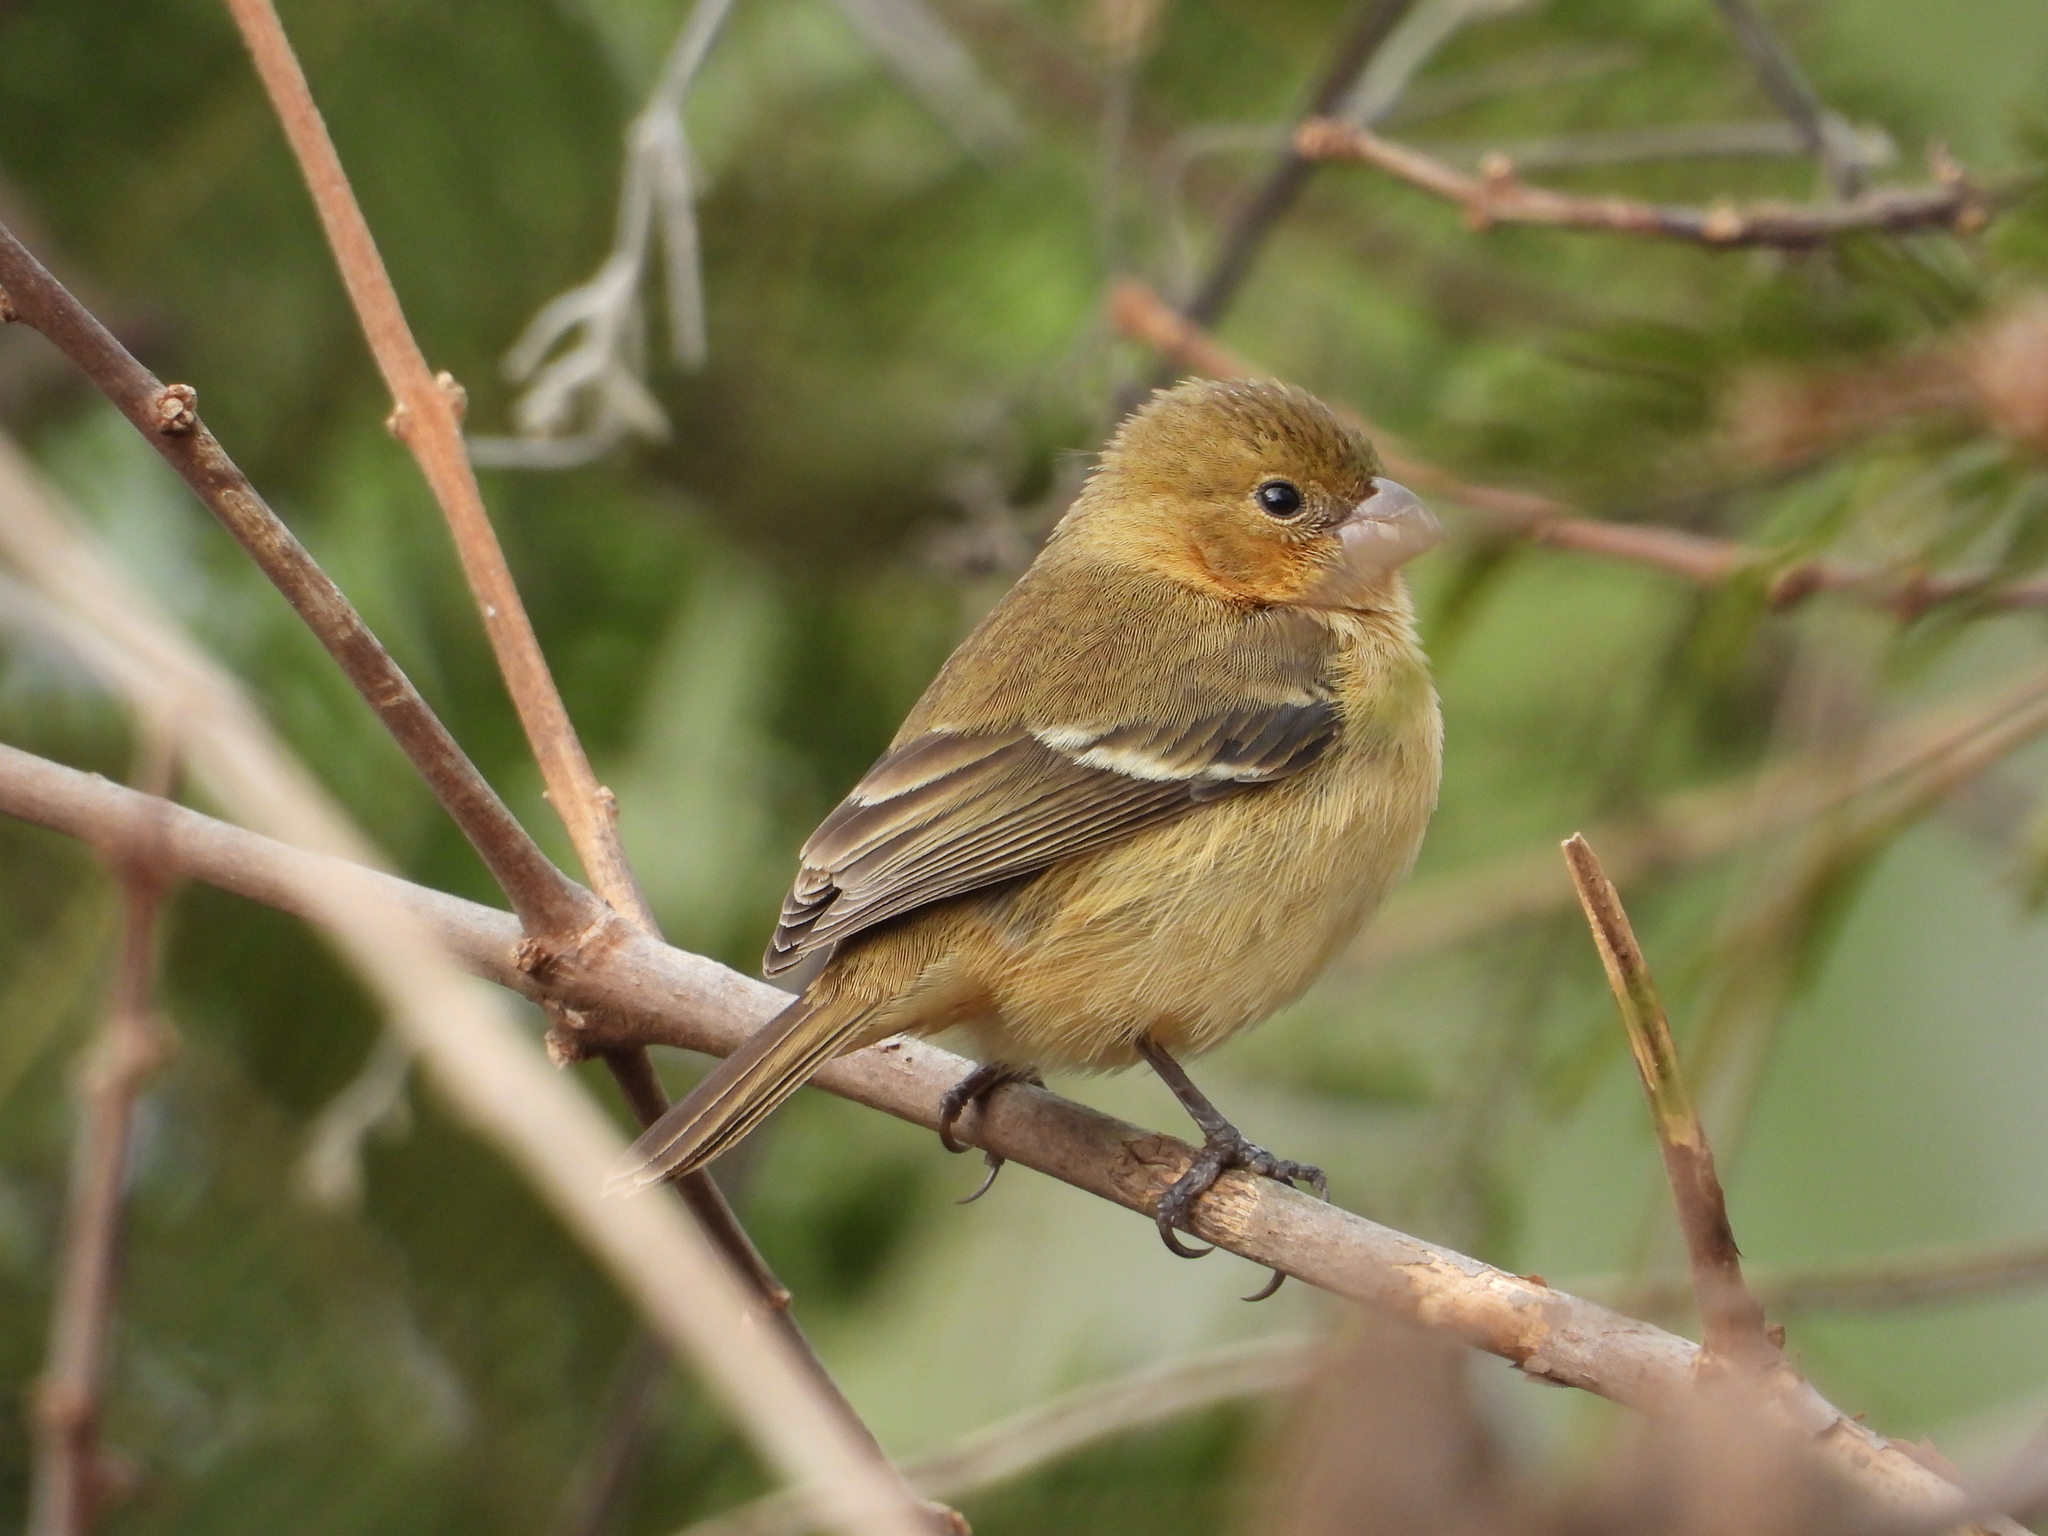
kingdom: Animalia
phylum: Chordata
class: Aves
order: Passeriformes
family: Thraupidae
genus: Sporophila
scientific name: Sporophila morelleti
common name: Morelet's seedeater
